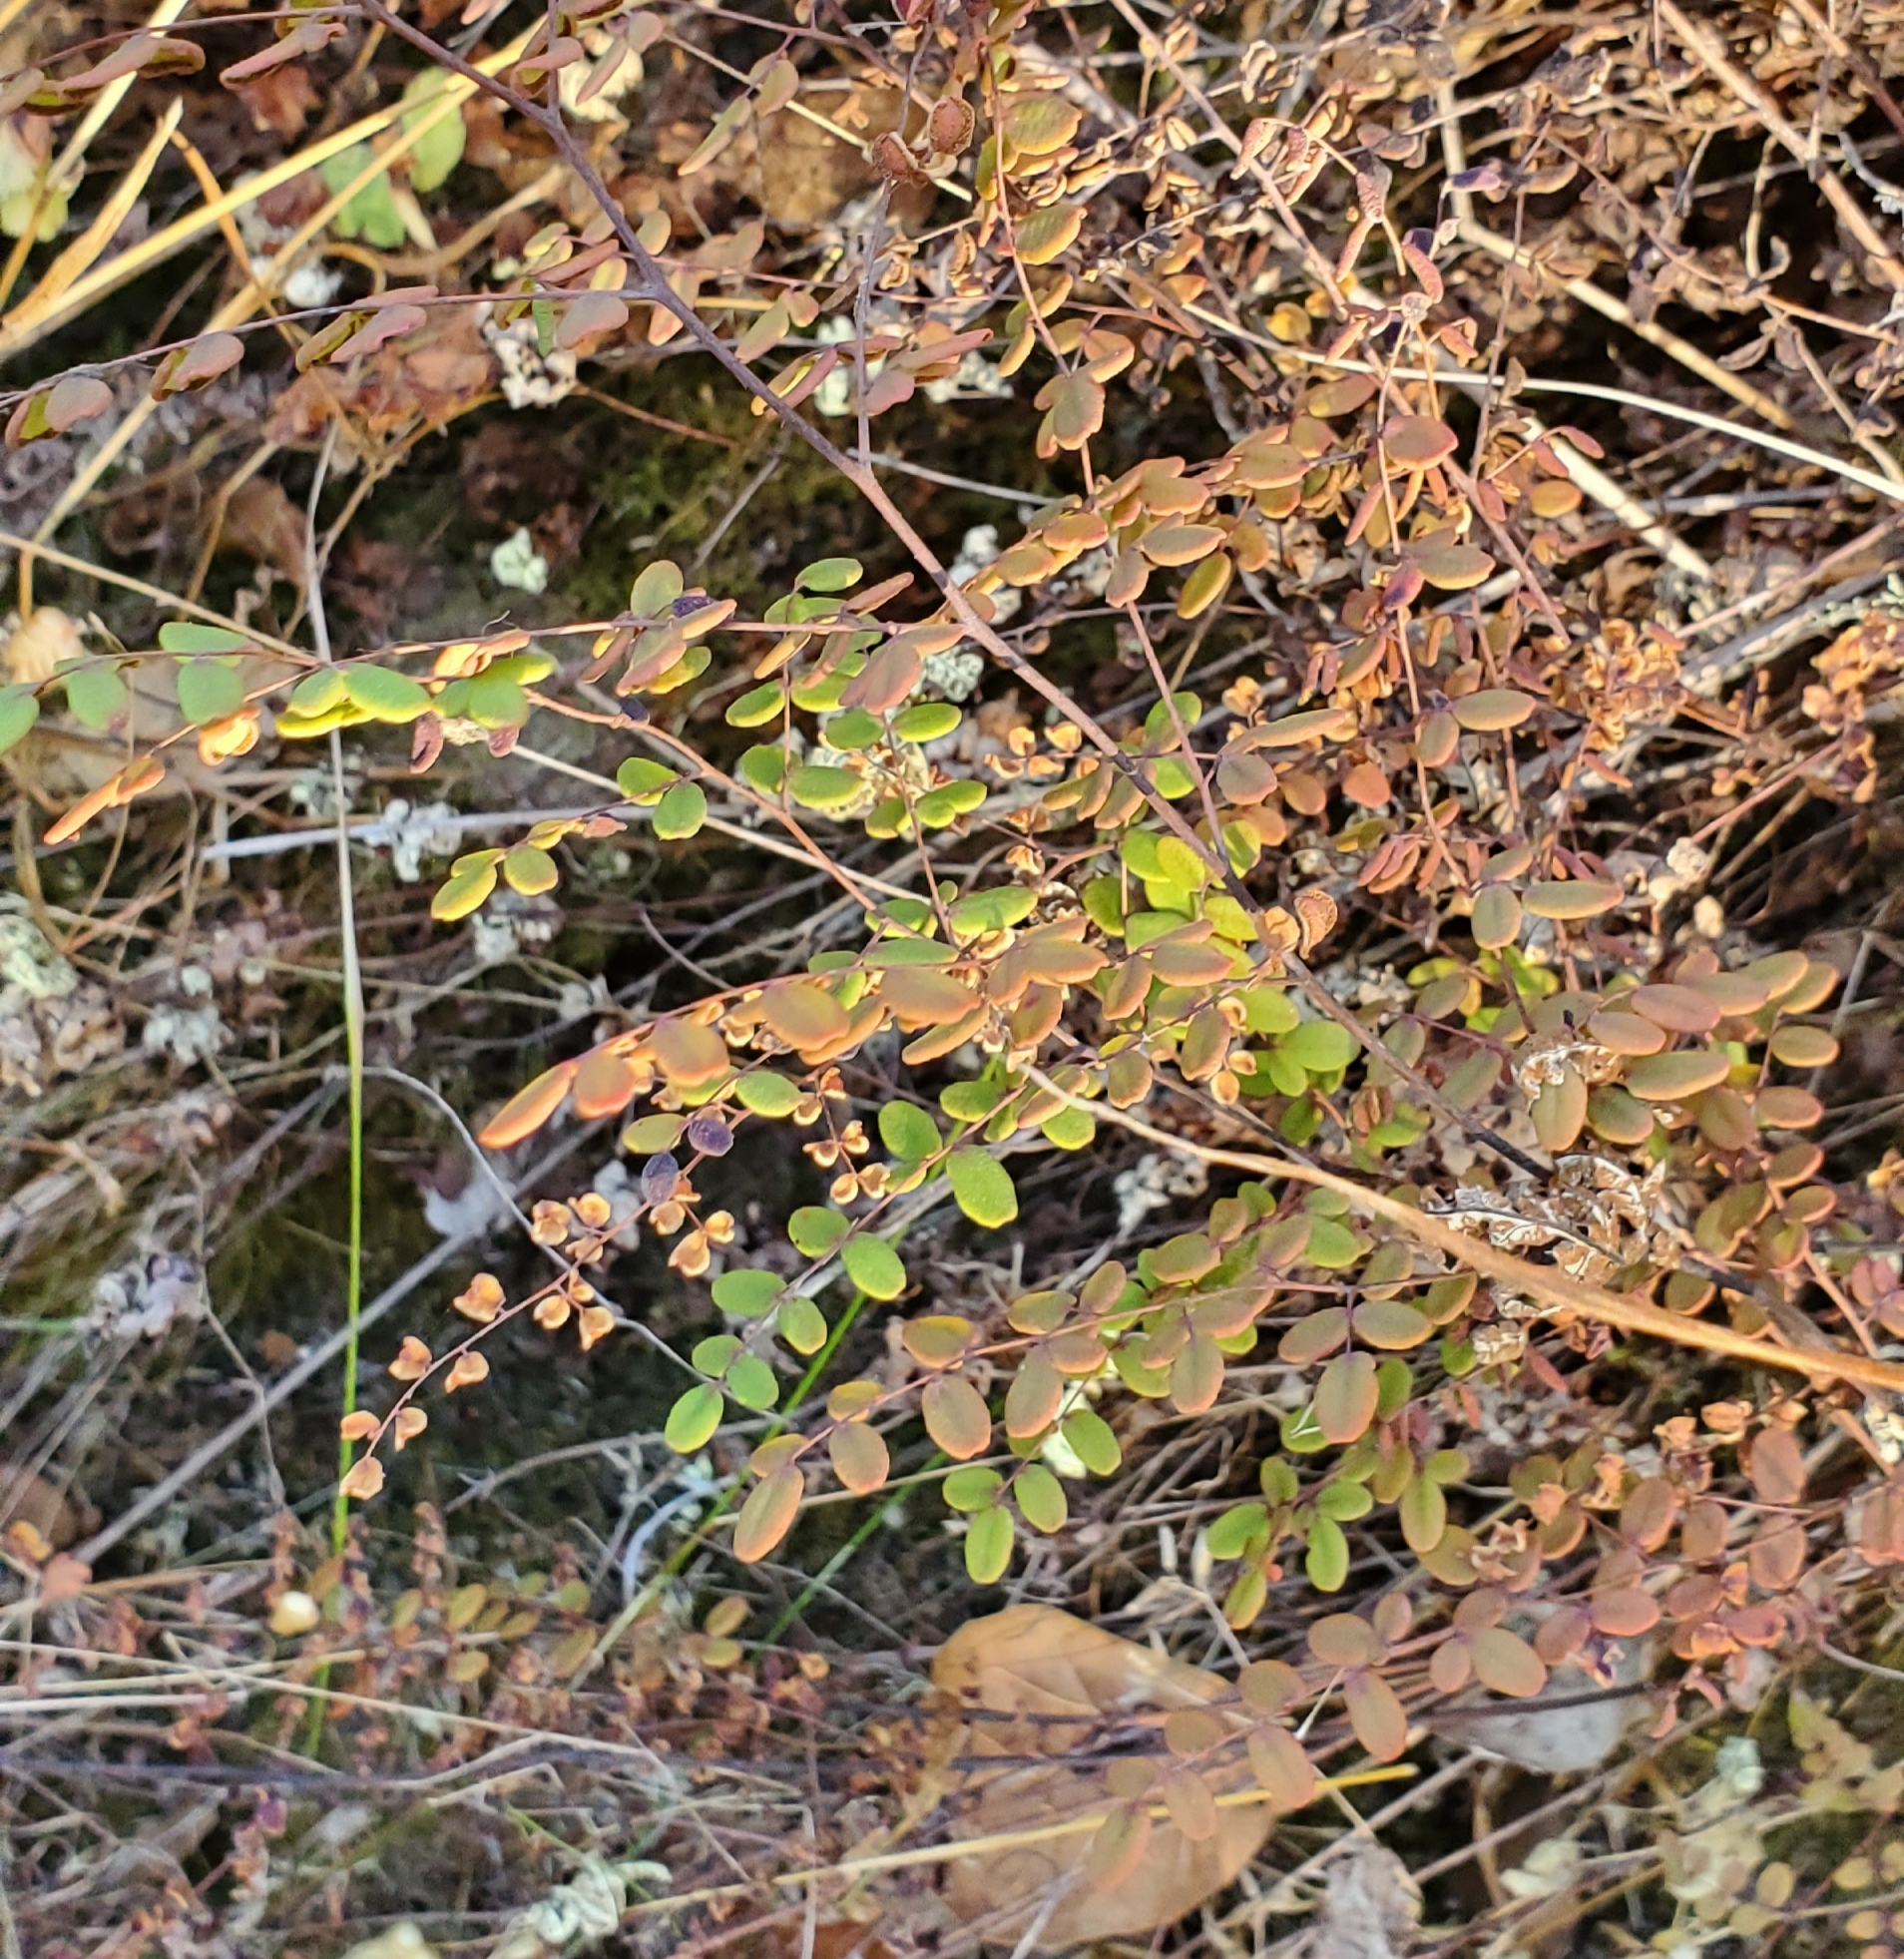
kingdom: Plantae
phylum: Tracheophyta
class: Polypodiopsida
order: Polypodiales
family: Pteridaceae
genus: Pellaea
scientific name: Pellaea andromedifolia
